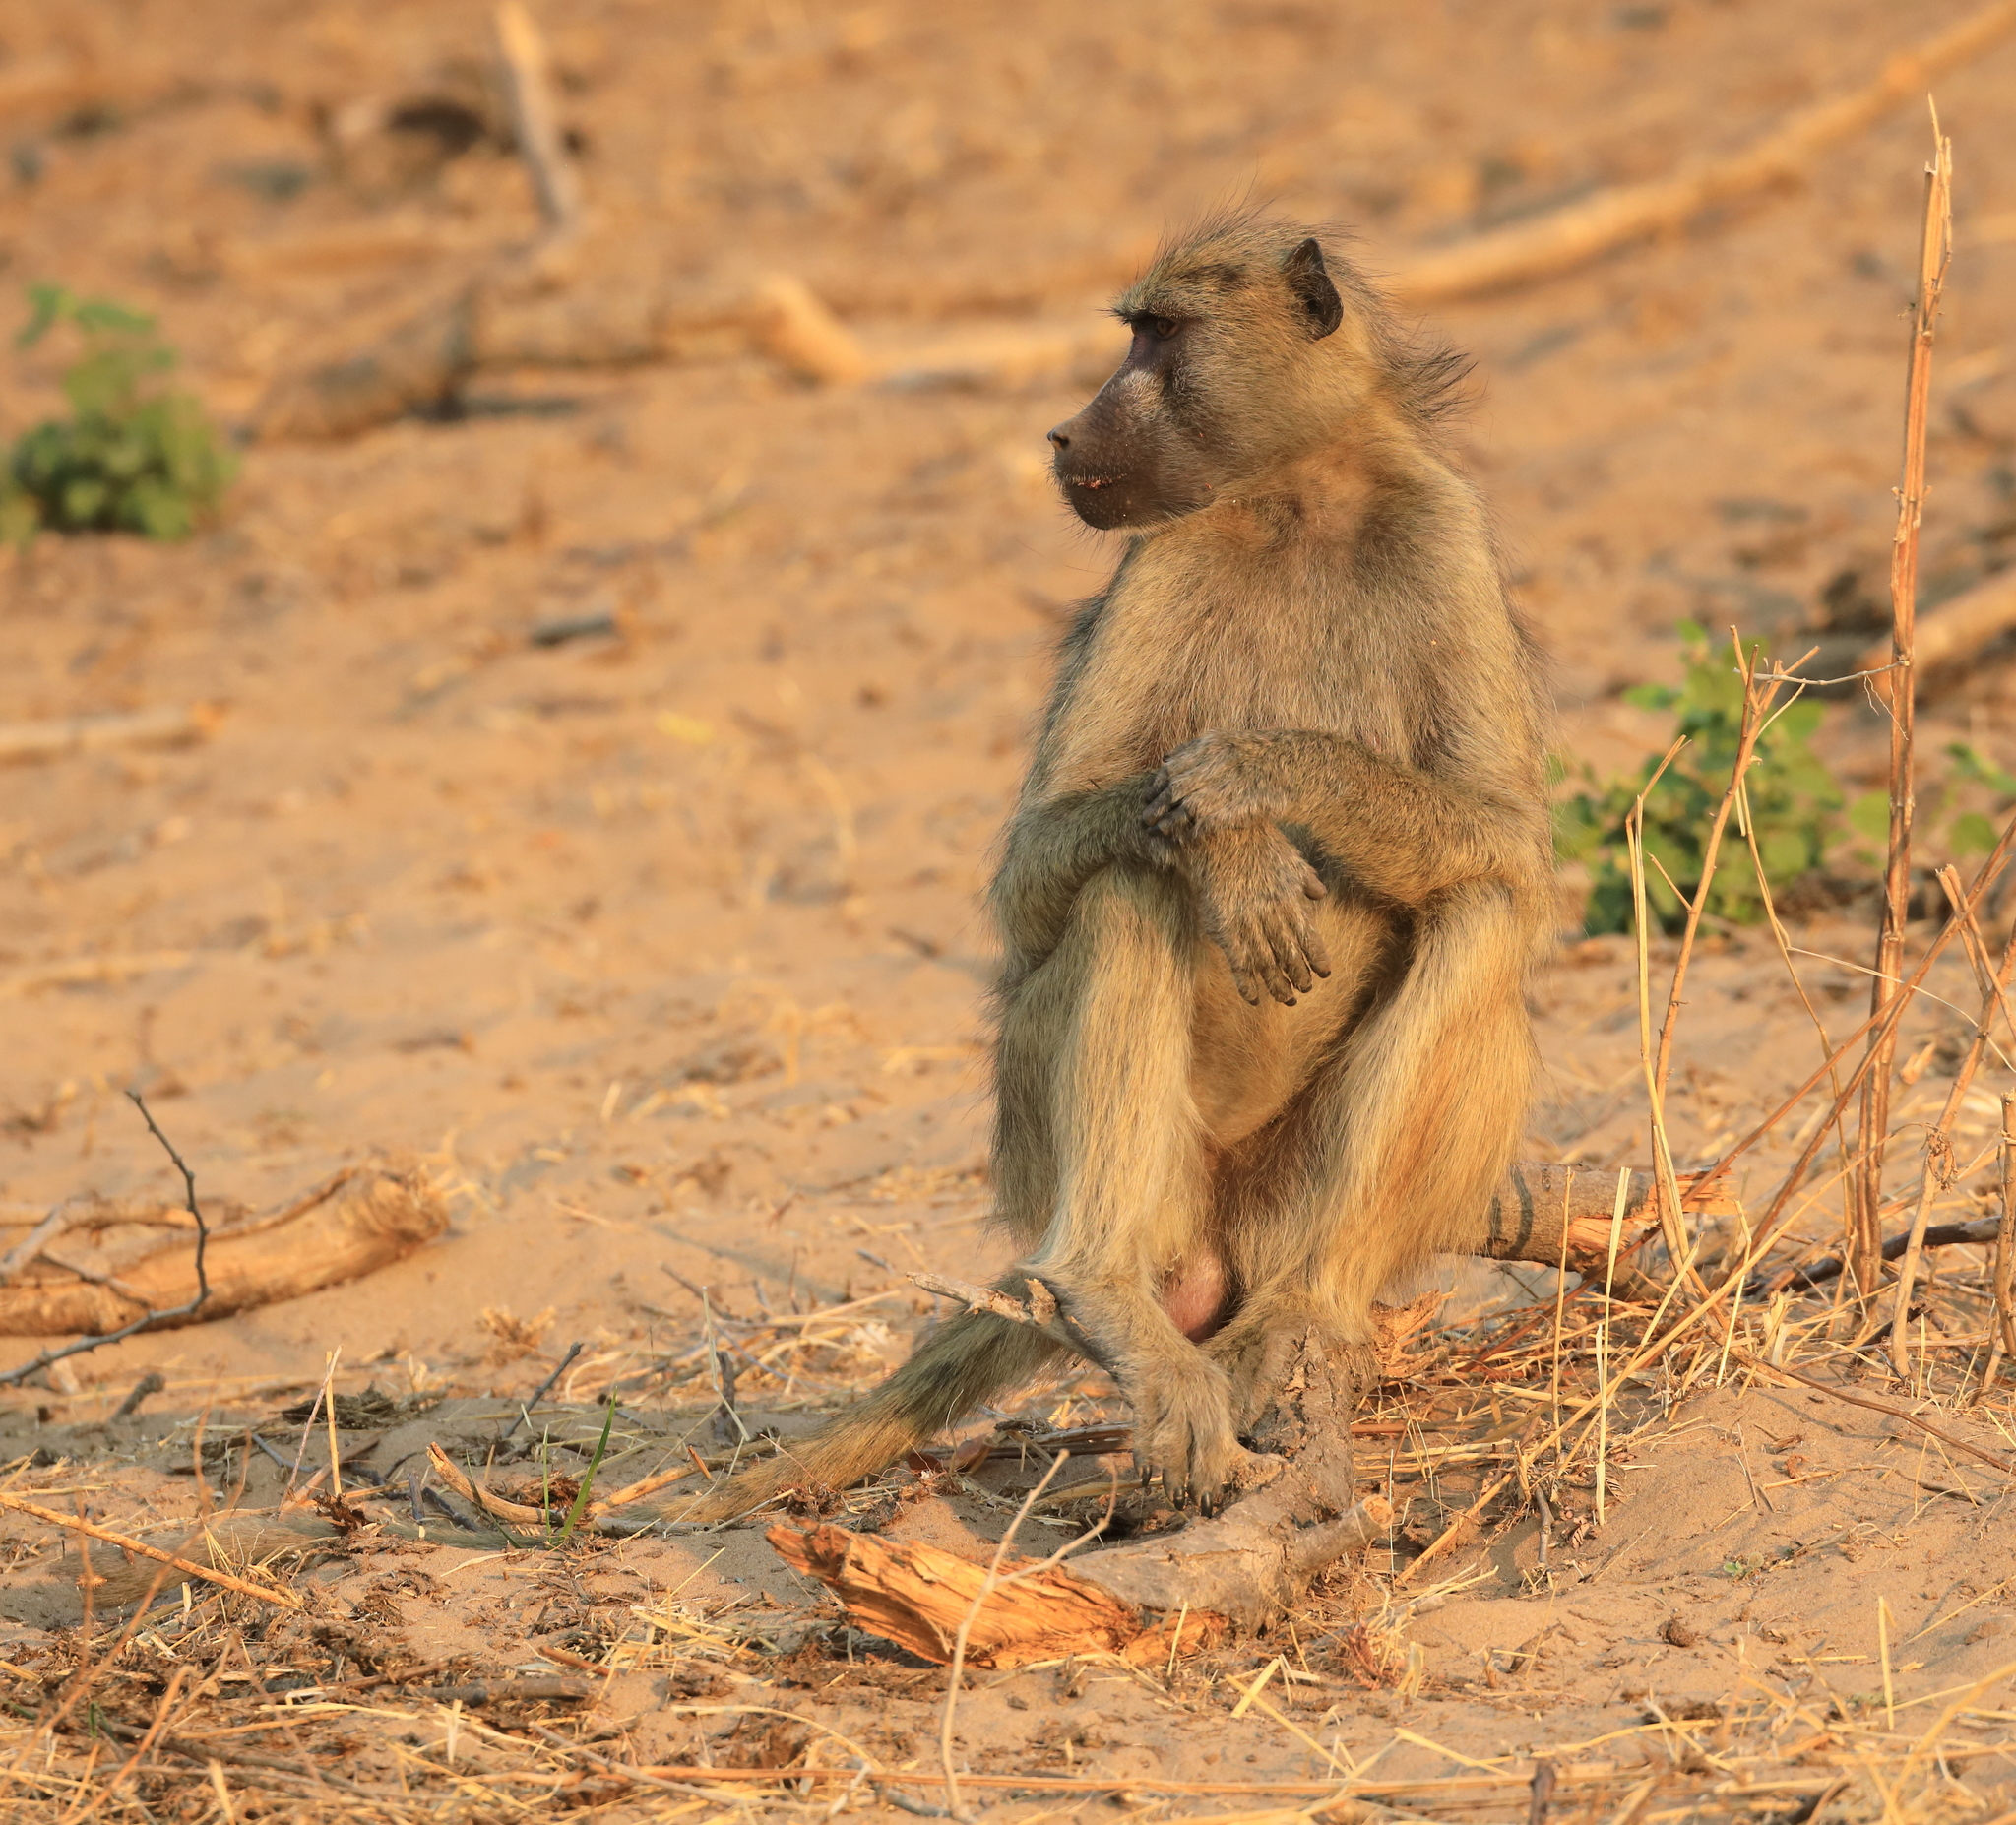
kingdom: Animalia
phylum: Chordata
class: Mammalia
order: Primates
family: Cercopithecidae
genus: Papio
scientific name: Papio ursinus
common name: Chacma baboon
